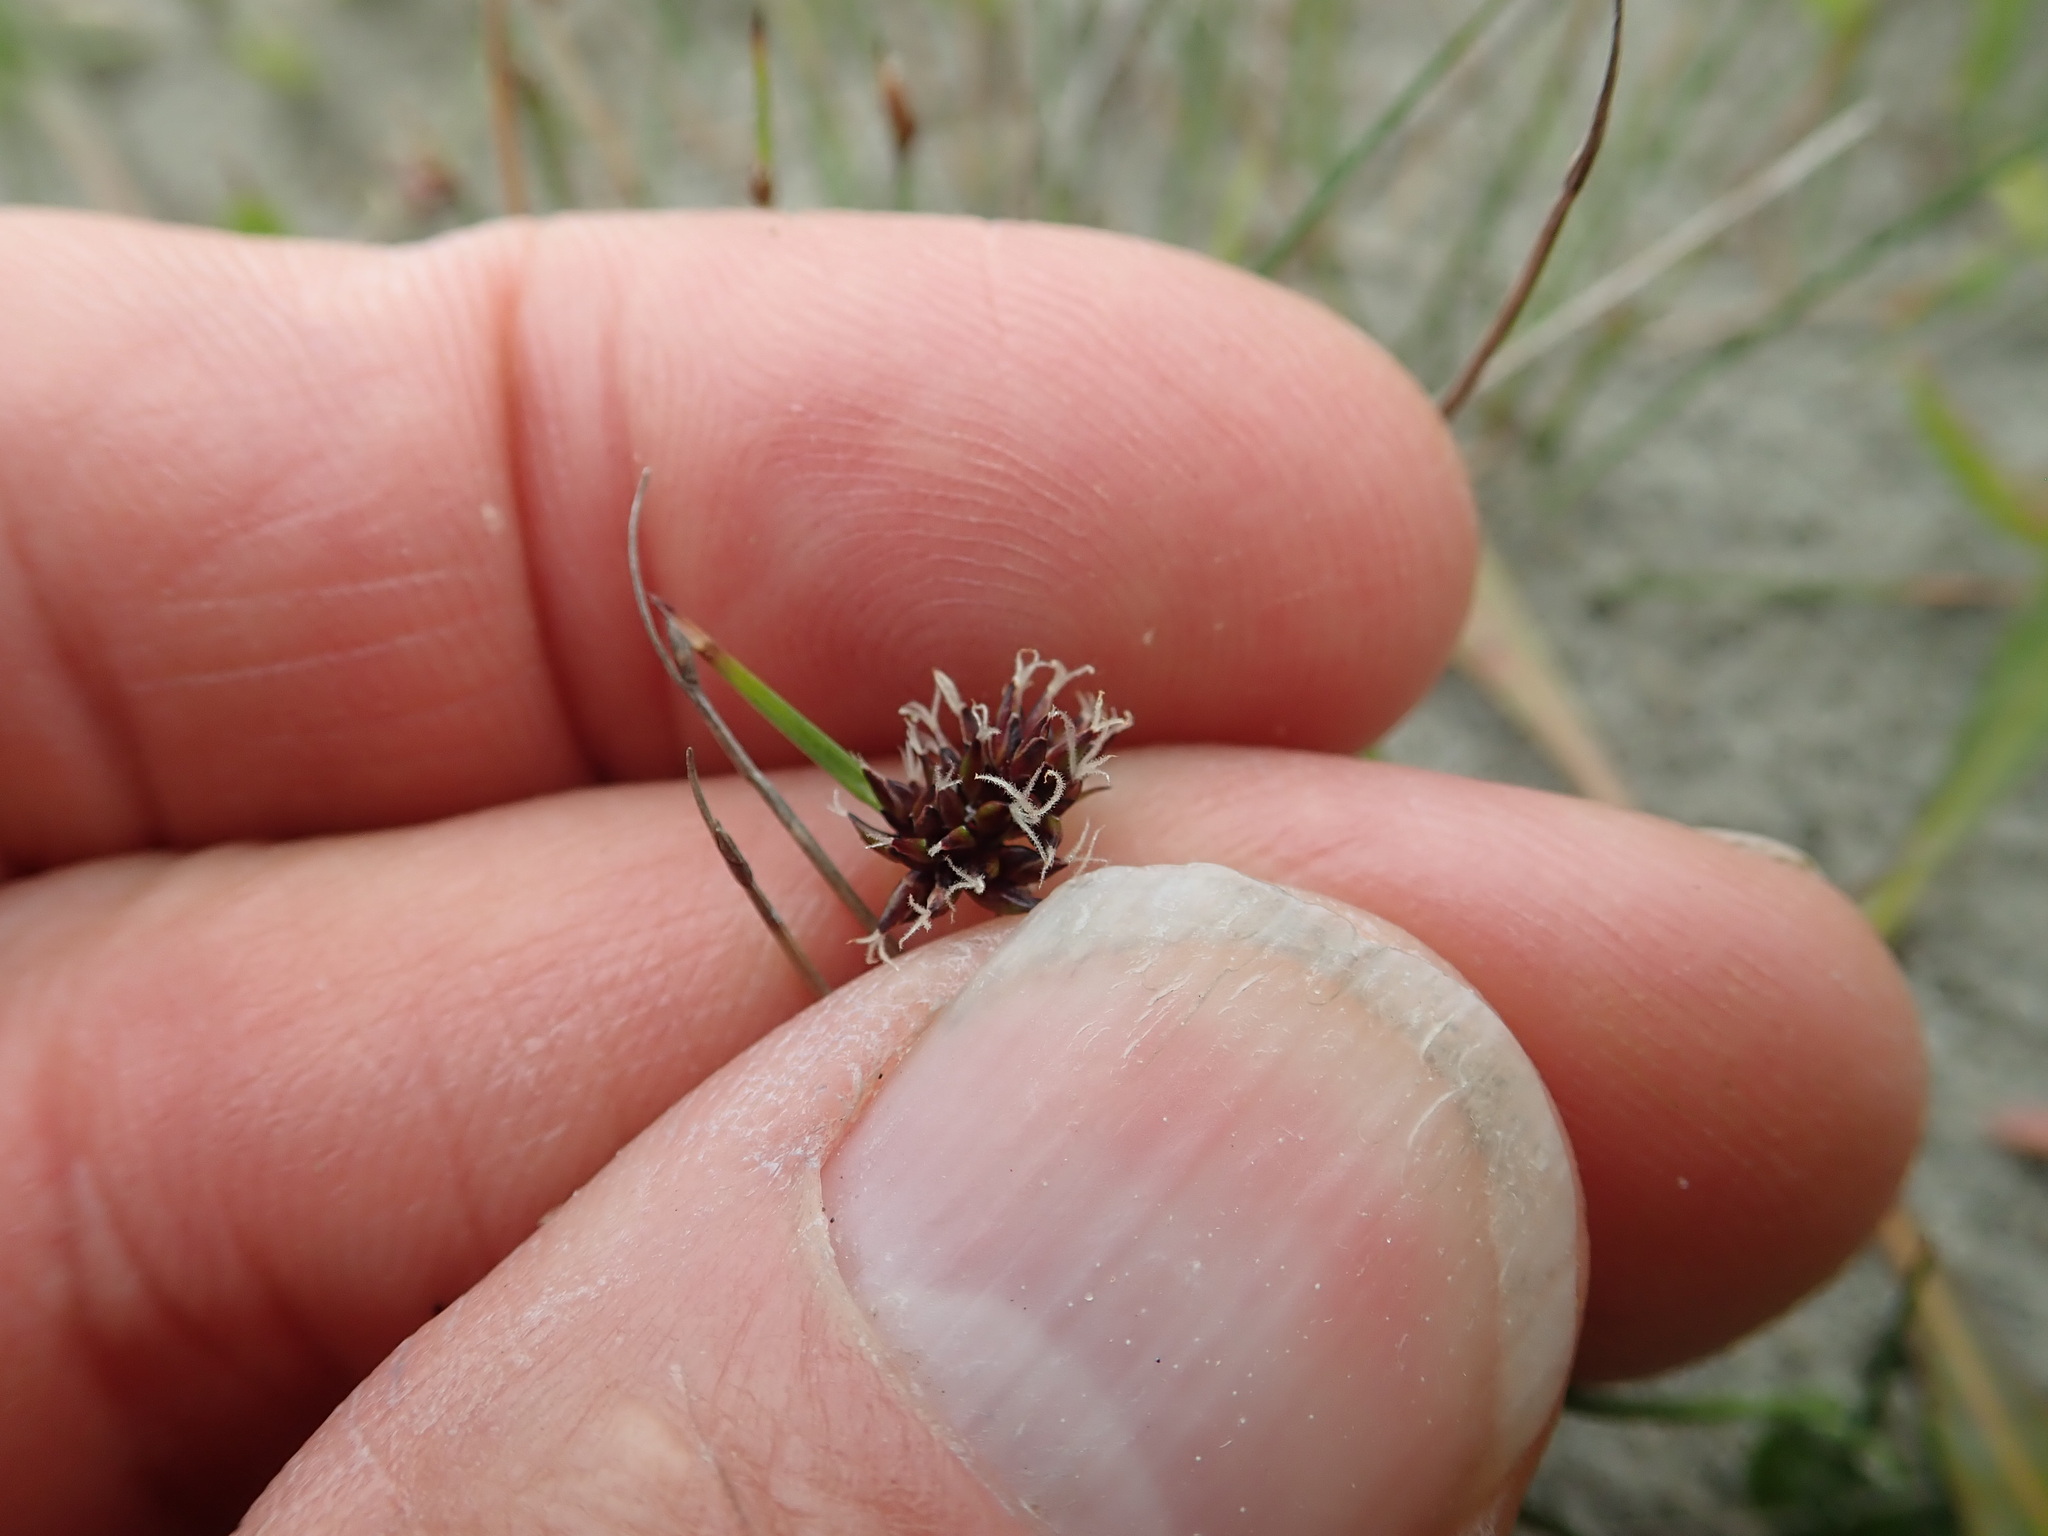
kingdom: Plantae
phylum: Tracheophyta
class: Liliopsida
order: Poales
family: Cyperaceae
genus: Schoenus
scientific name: Schoenus nitens
